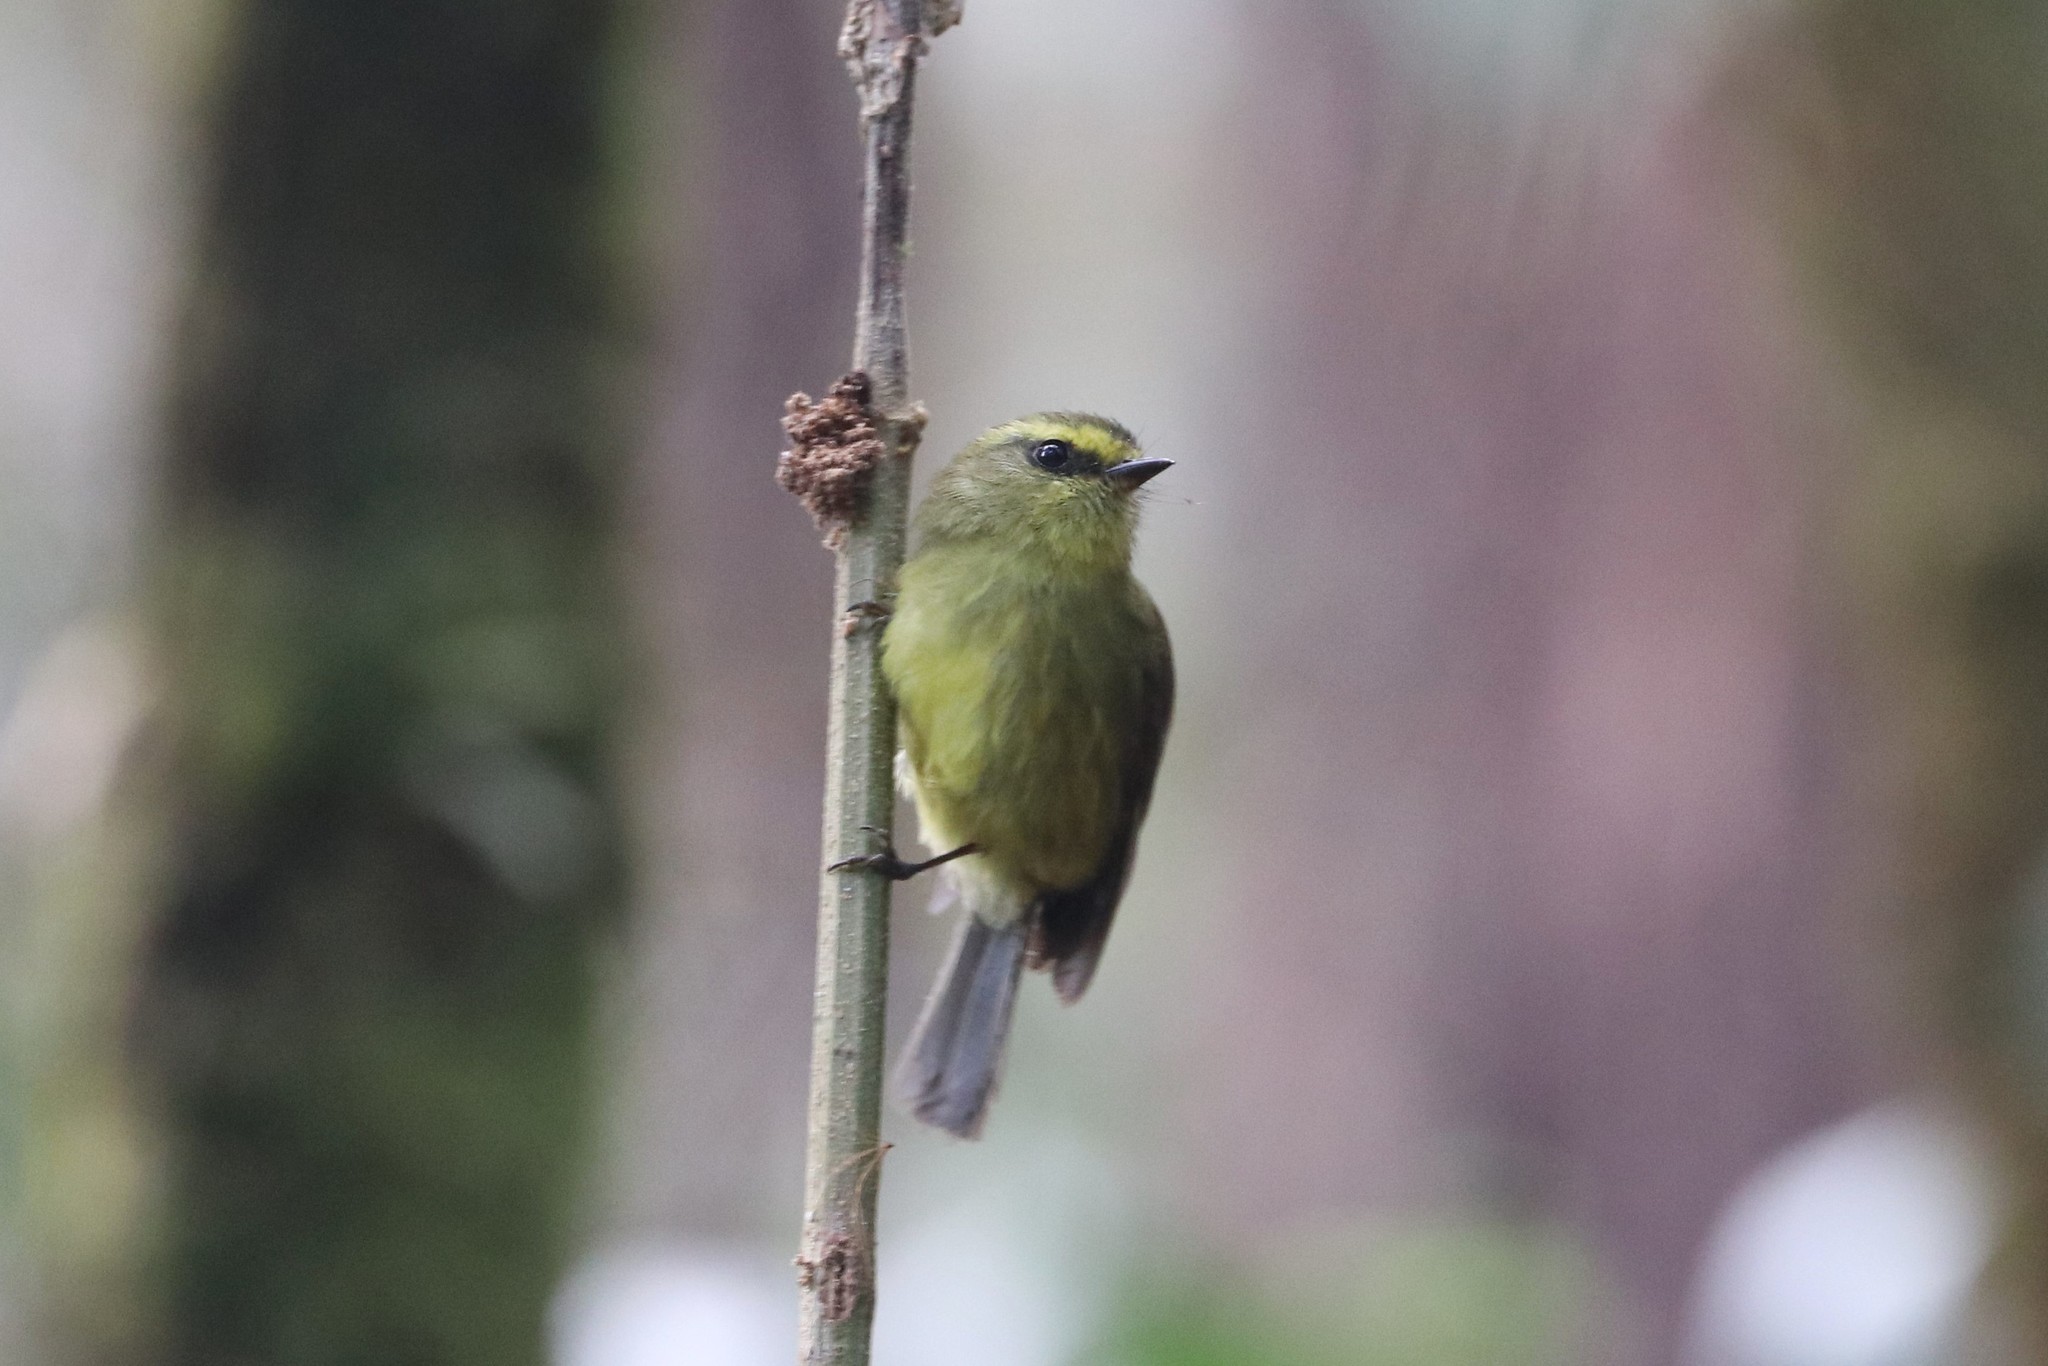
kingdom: Animalia
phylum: Chordata
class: Aves
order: Passeriformes
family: Tyrannidae
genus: Ochthoeca
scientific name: Ochthoeca diadema
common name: Yellow-bellied chat-tyrant
